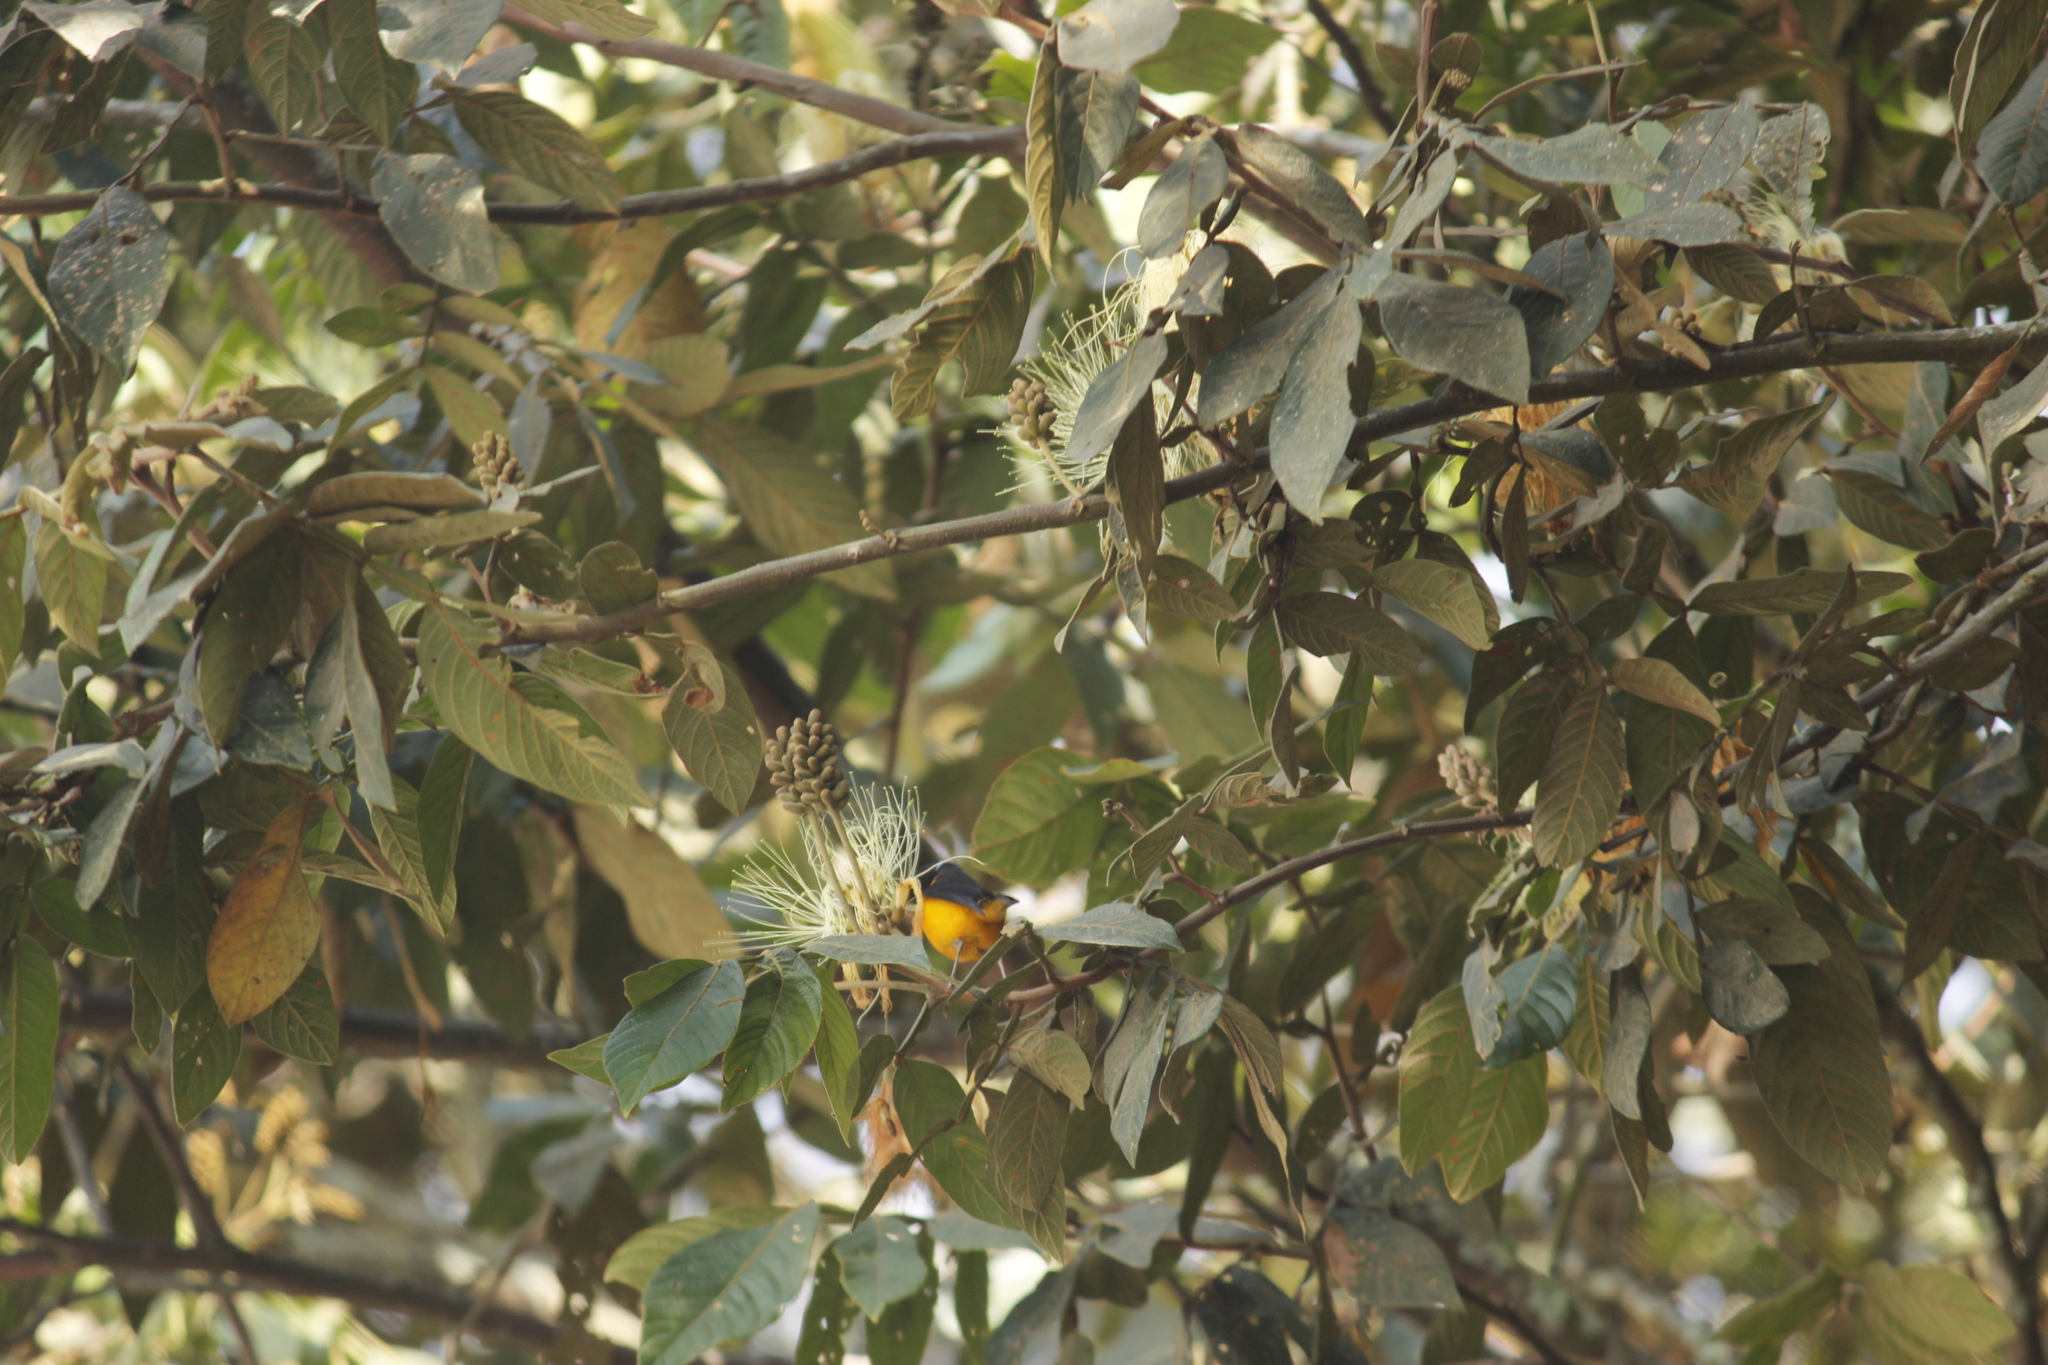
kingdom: Animalia
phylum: Chordata
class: Aves
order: Passeriformes
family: Fringillidae
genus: Euphonia
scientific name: Euphonia cyanocephala
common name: Golden-rumped euphonia
